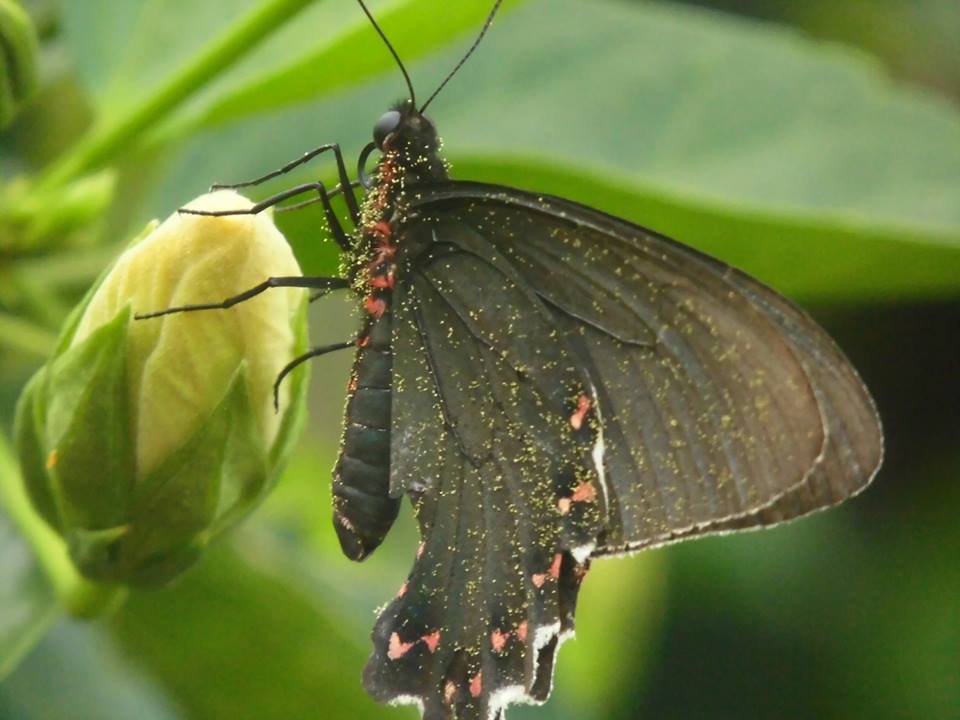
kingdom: Animalia
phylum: Arthropoda
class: Insecta
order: Lepidoptera
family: Papilionidae
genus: Parides
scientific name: Parides bunichus
